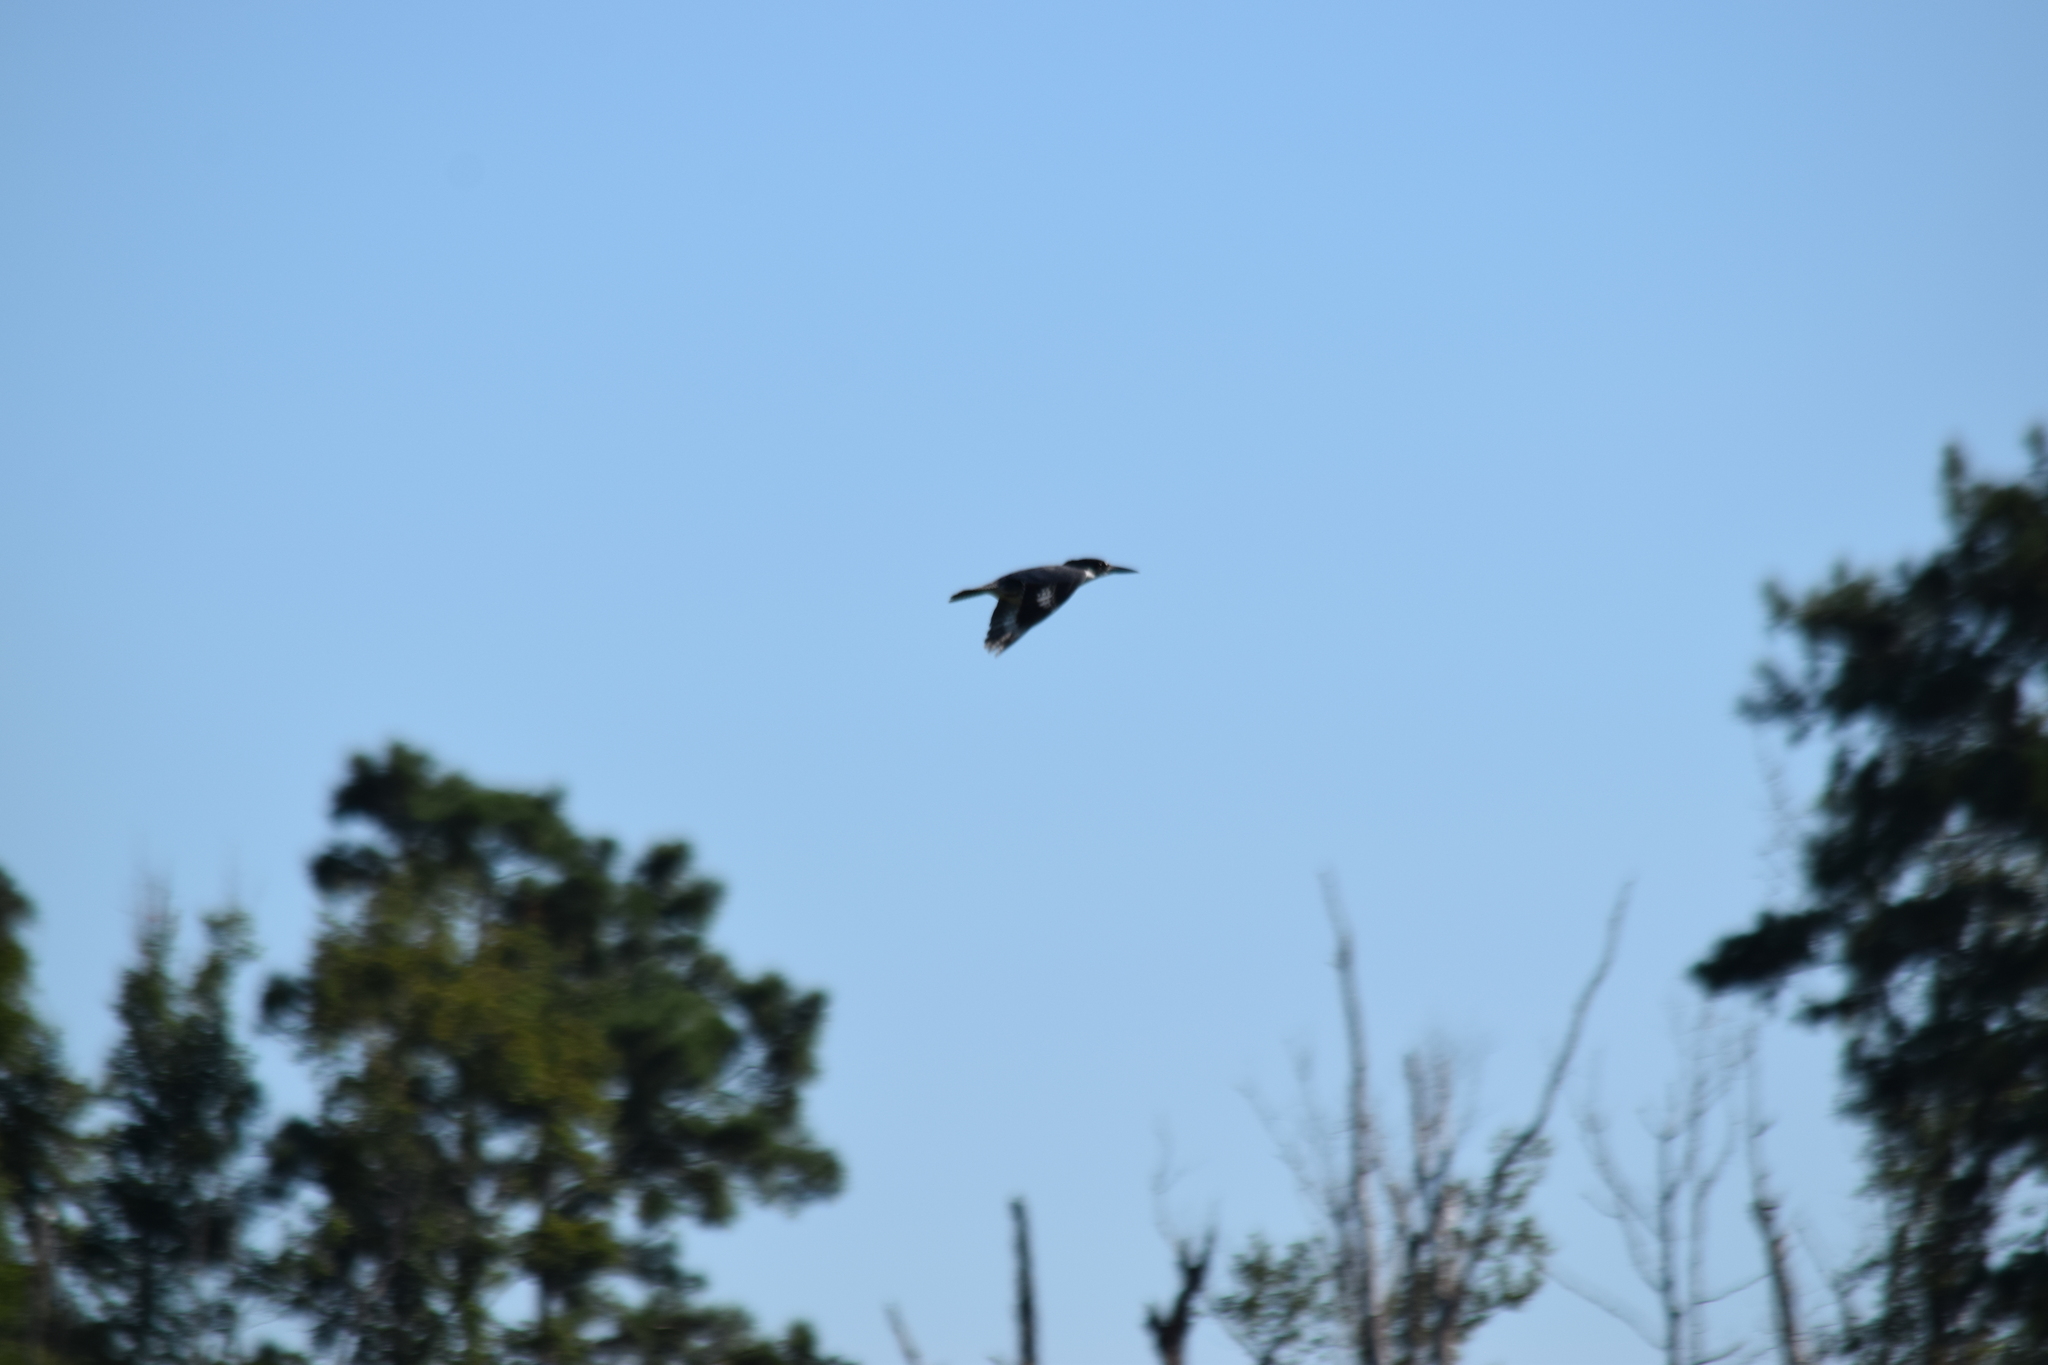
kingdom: Animalia
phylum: Chordata
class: Aves
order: Coraciiformes
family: Alcedinidae
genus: Megaceryle
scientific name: Megaceryle alcyon
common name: Belted kingfisher
